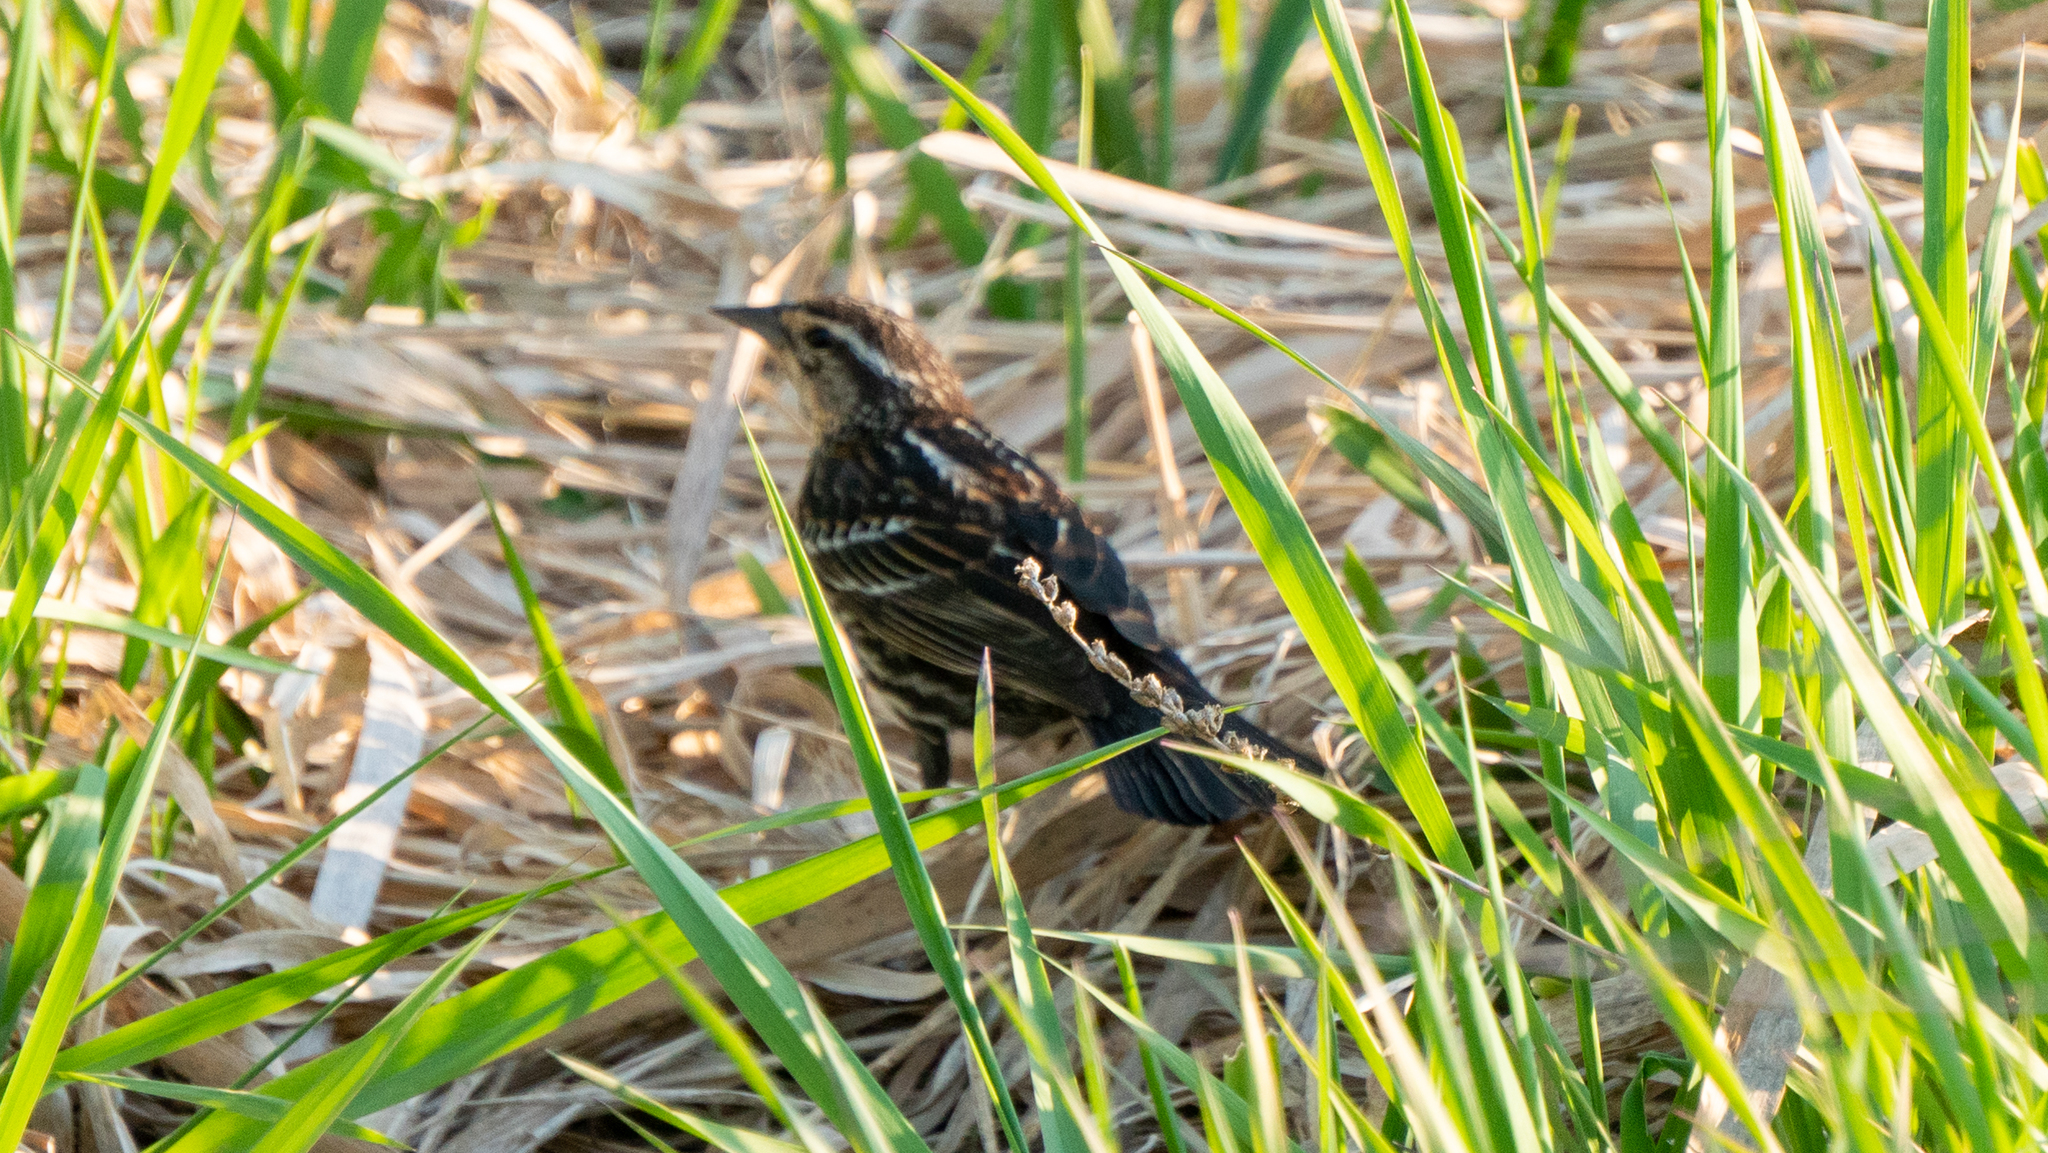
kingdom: Animalia
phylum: Chordata
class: Aves
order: Passeriformes
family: Icteridae
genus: Agelaius
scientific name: Agelaius phoeniceus
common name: Red-winged blackbird
